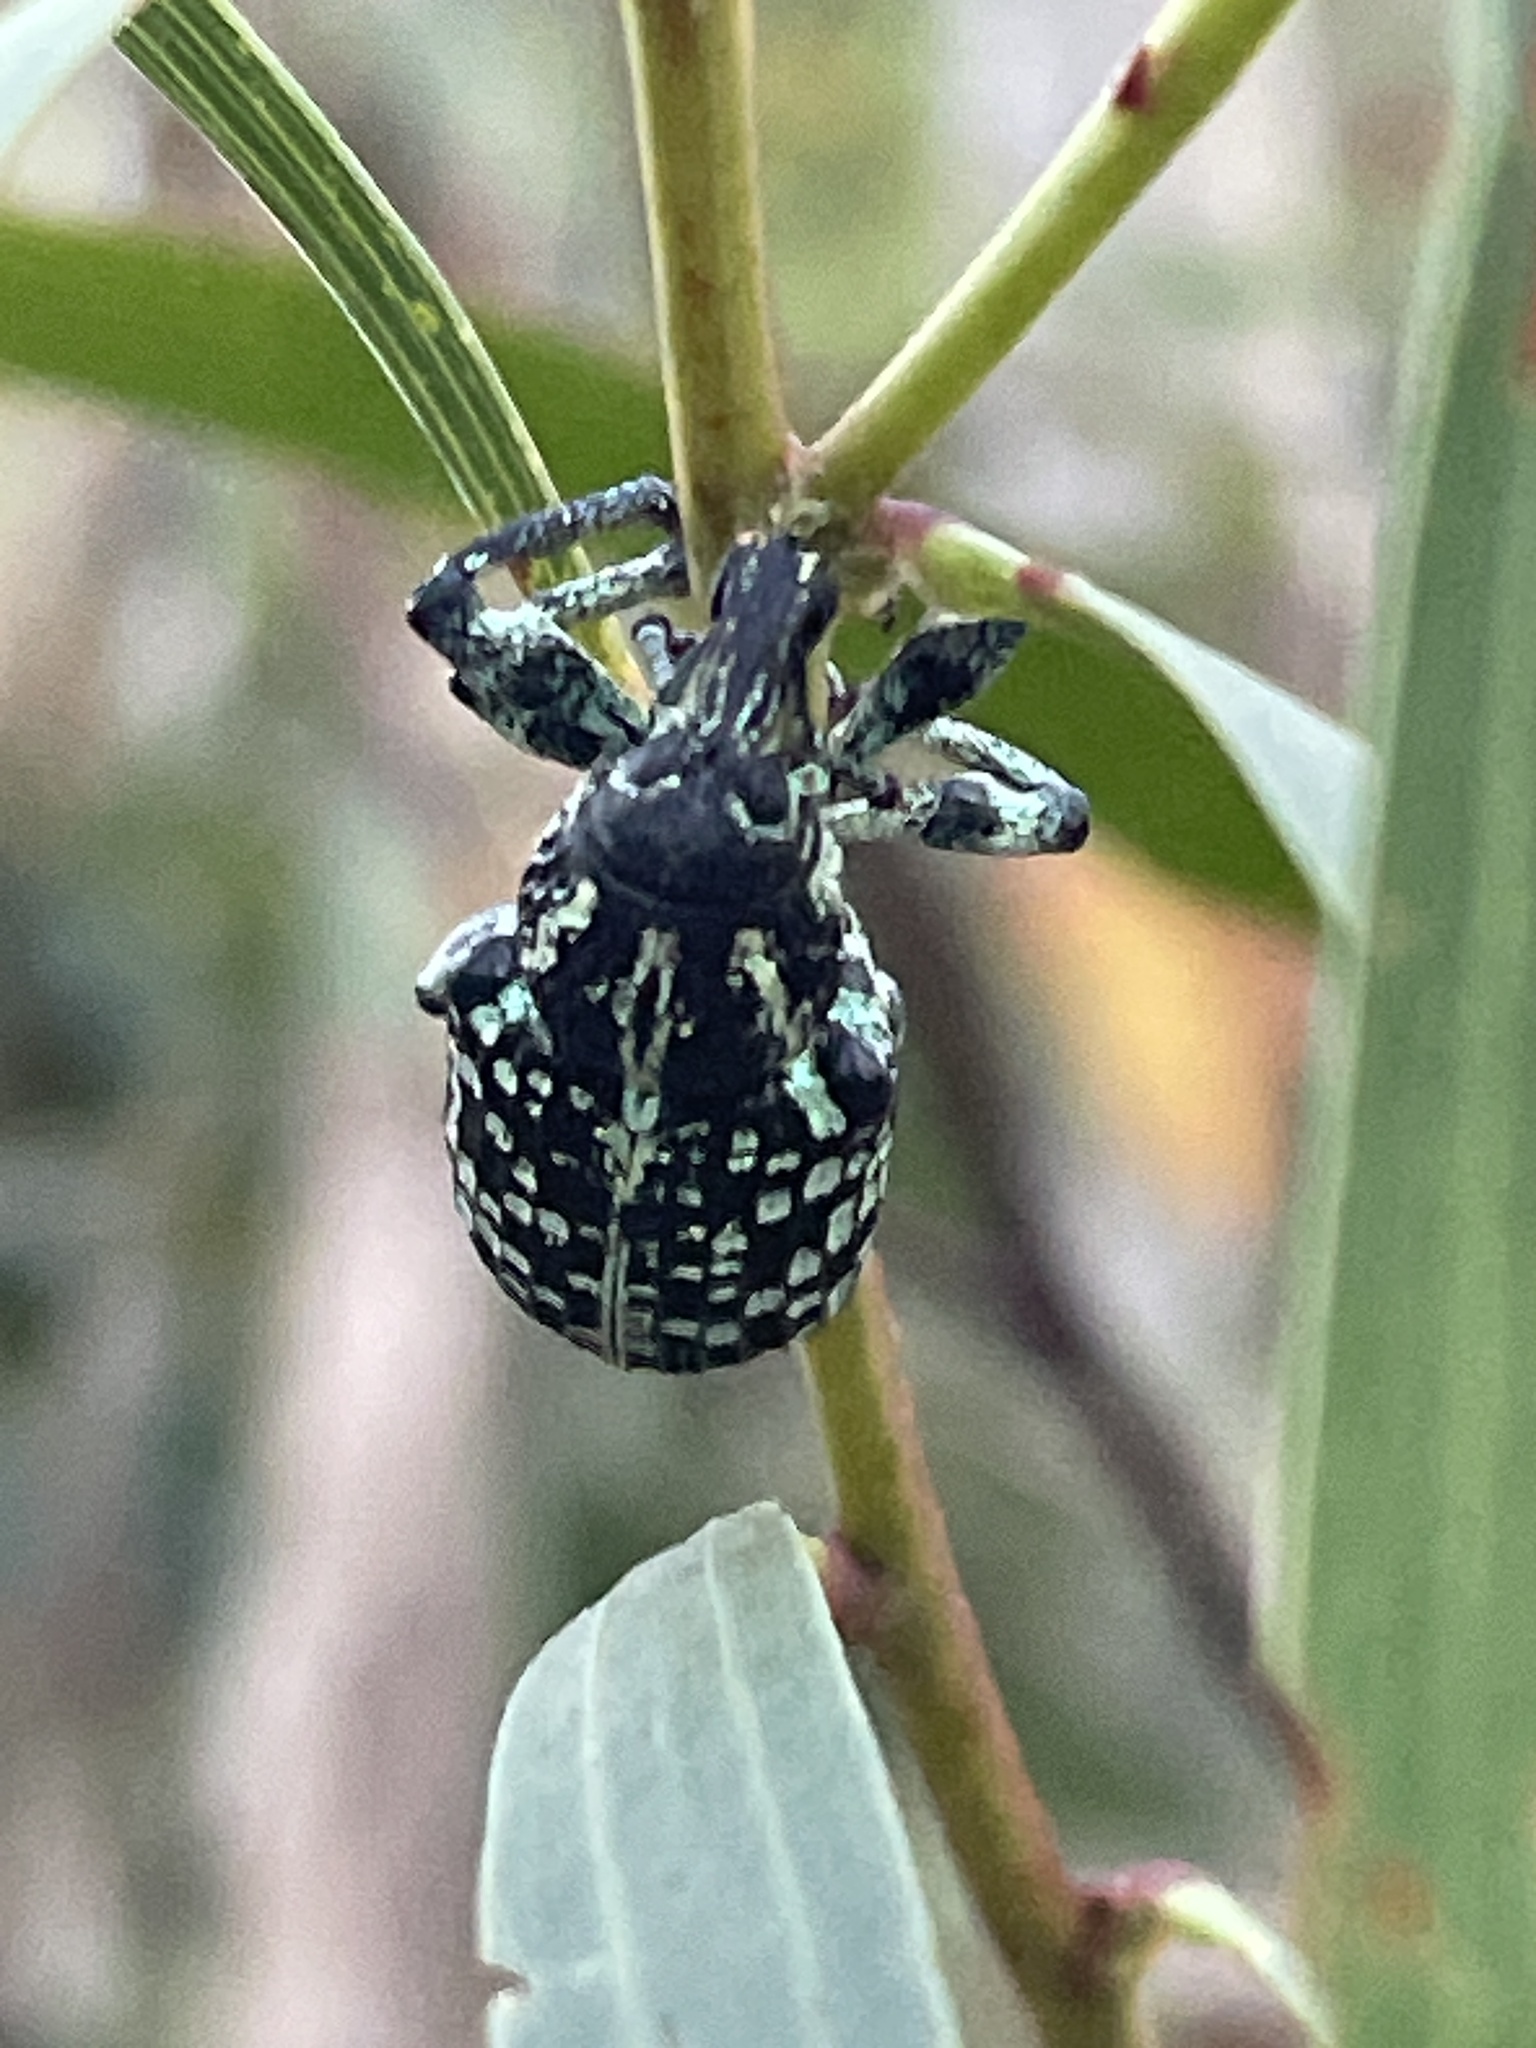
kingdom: Animalia
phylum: Arthropoda
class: Insecta
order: Coleoptera
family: Curculionidae
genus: Chrysolopus
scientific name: Chrysolopus spectabilis
